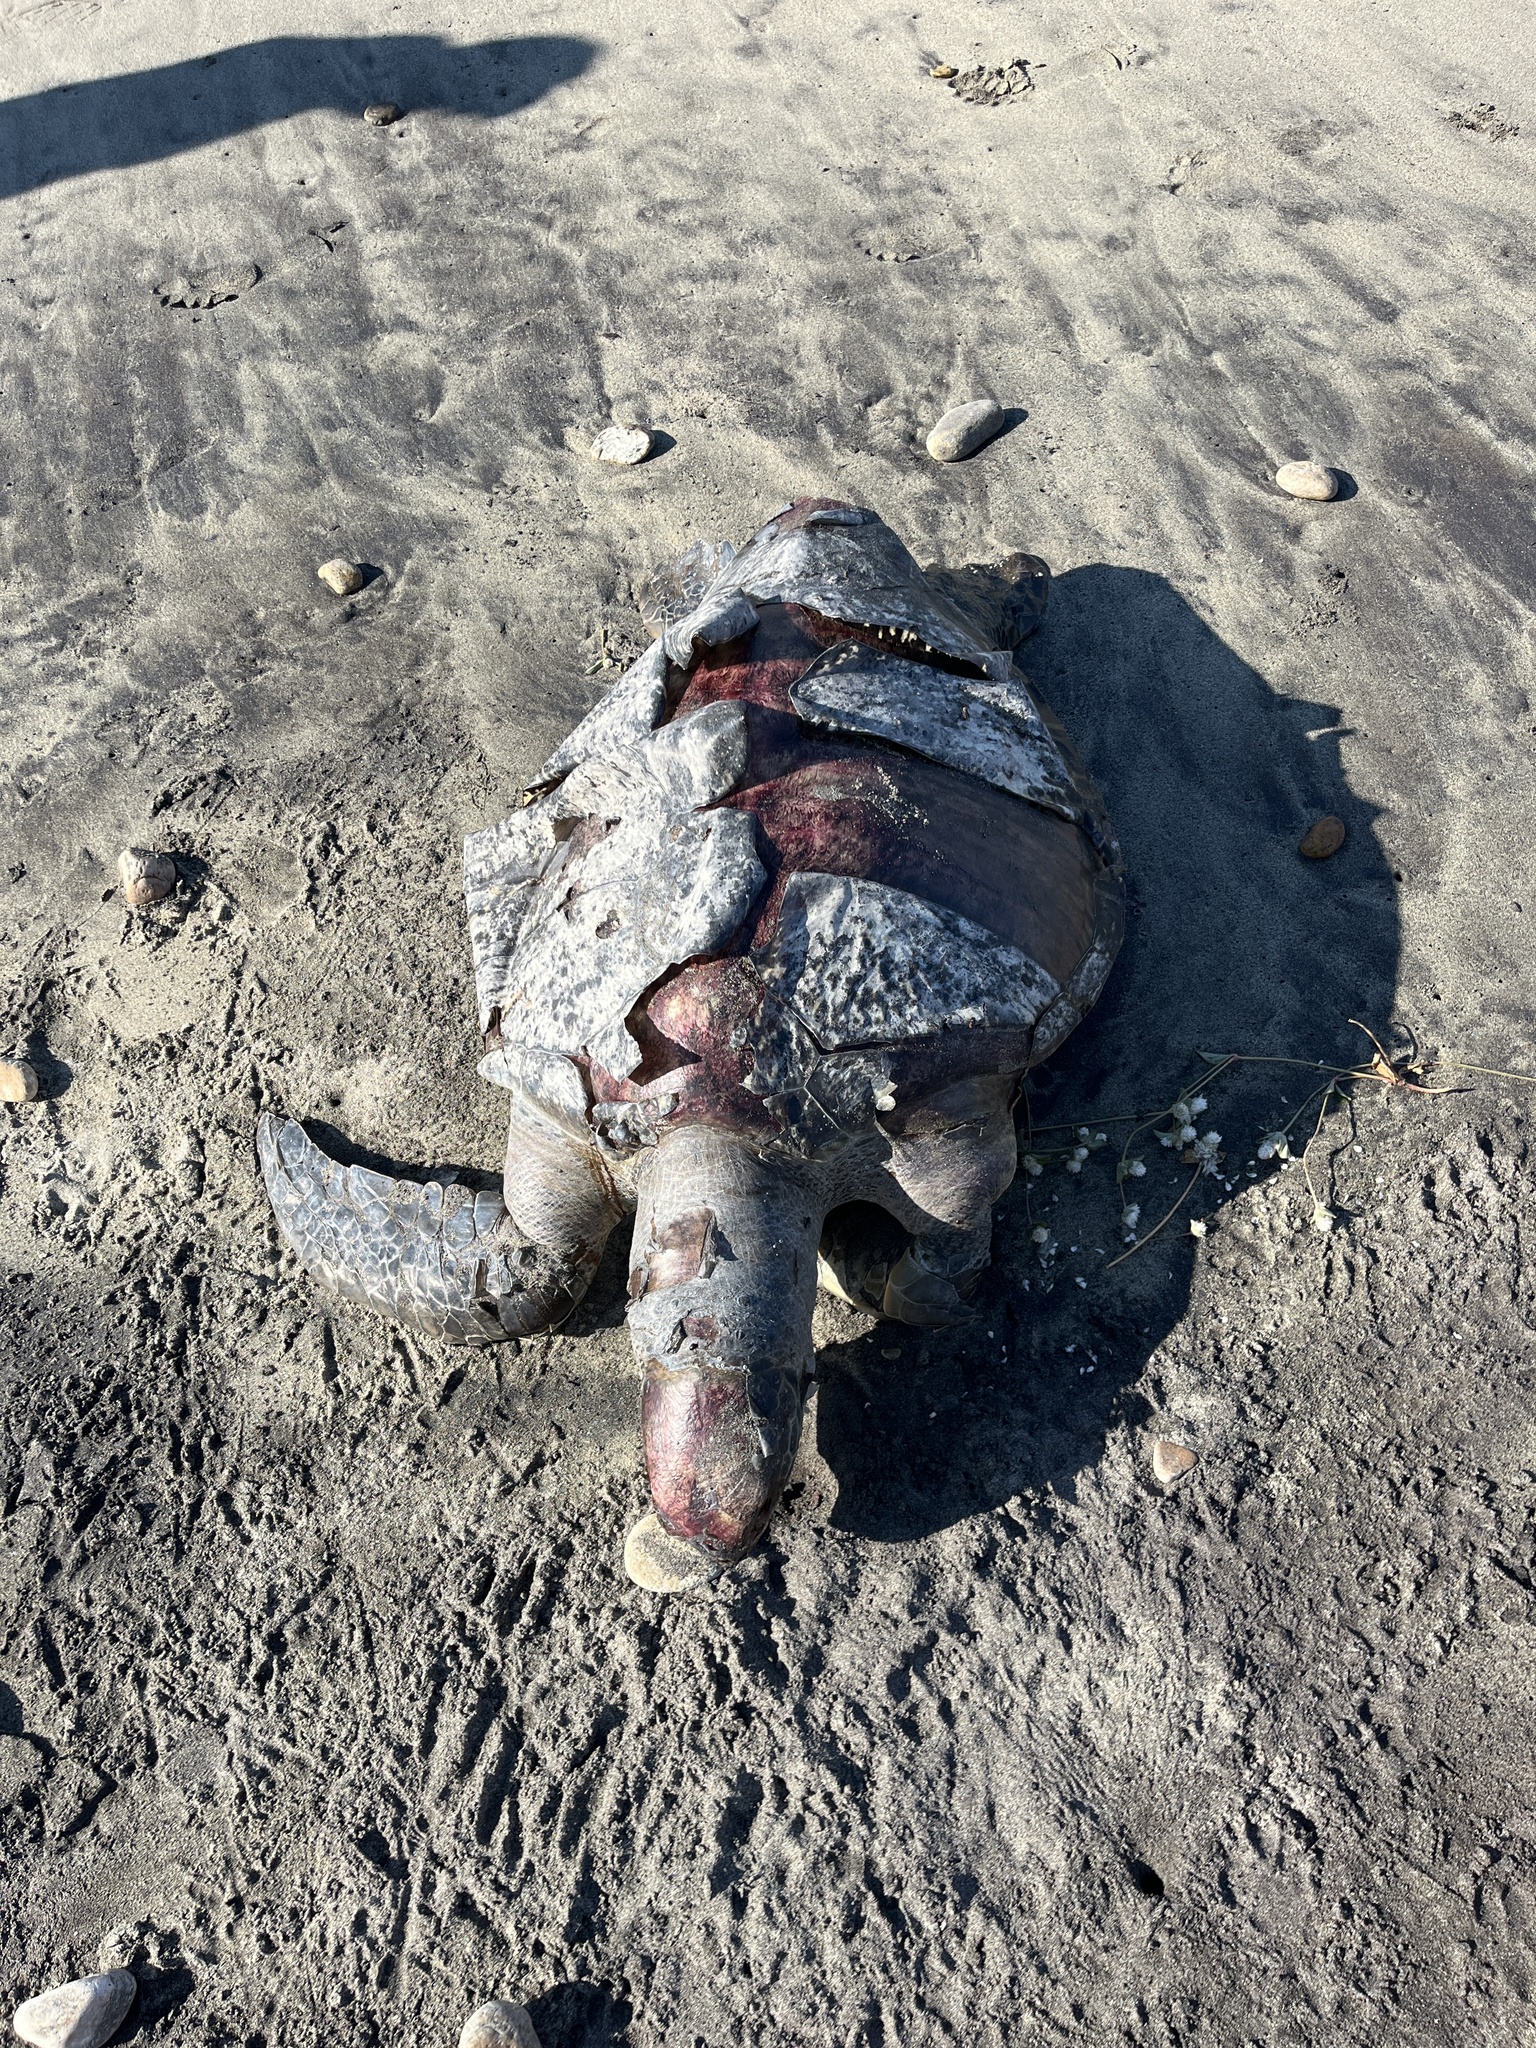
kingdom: Animalia
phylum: Chordata
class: Testudines
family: Cheloniidae
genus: Chelonia
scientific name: Chelonia mydas
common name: Green turtle
